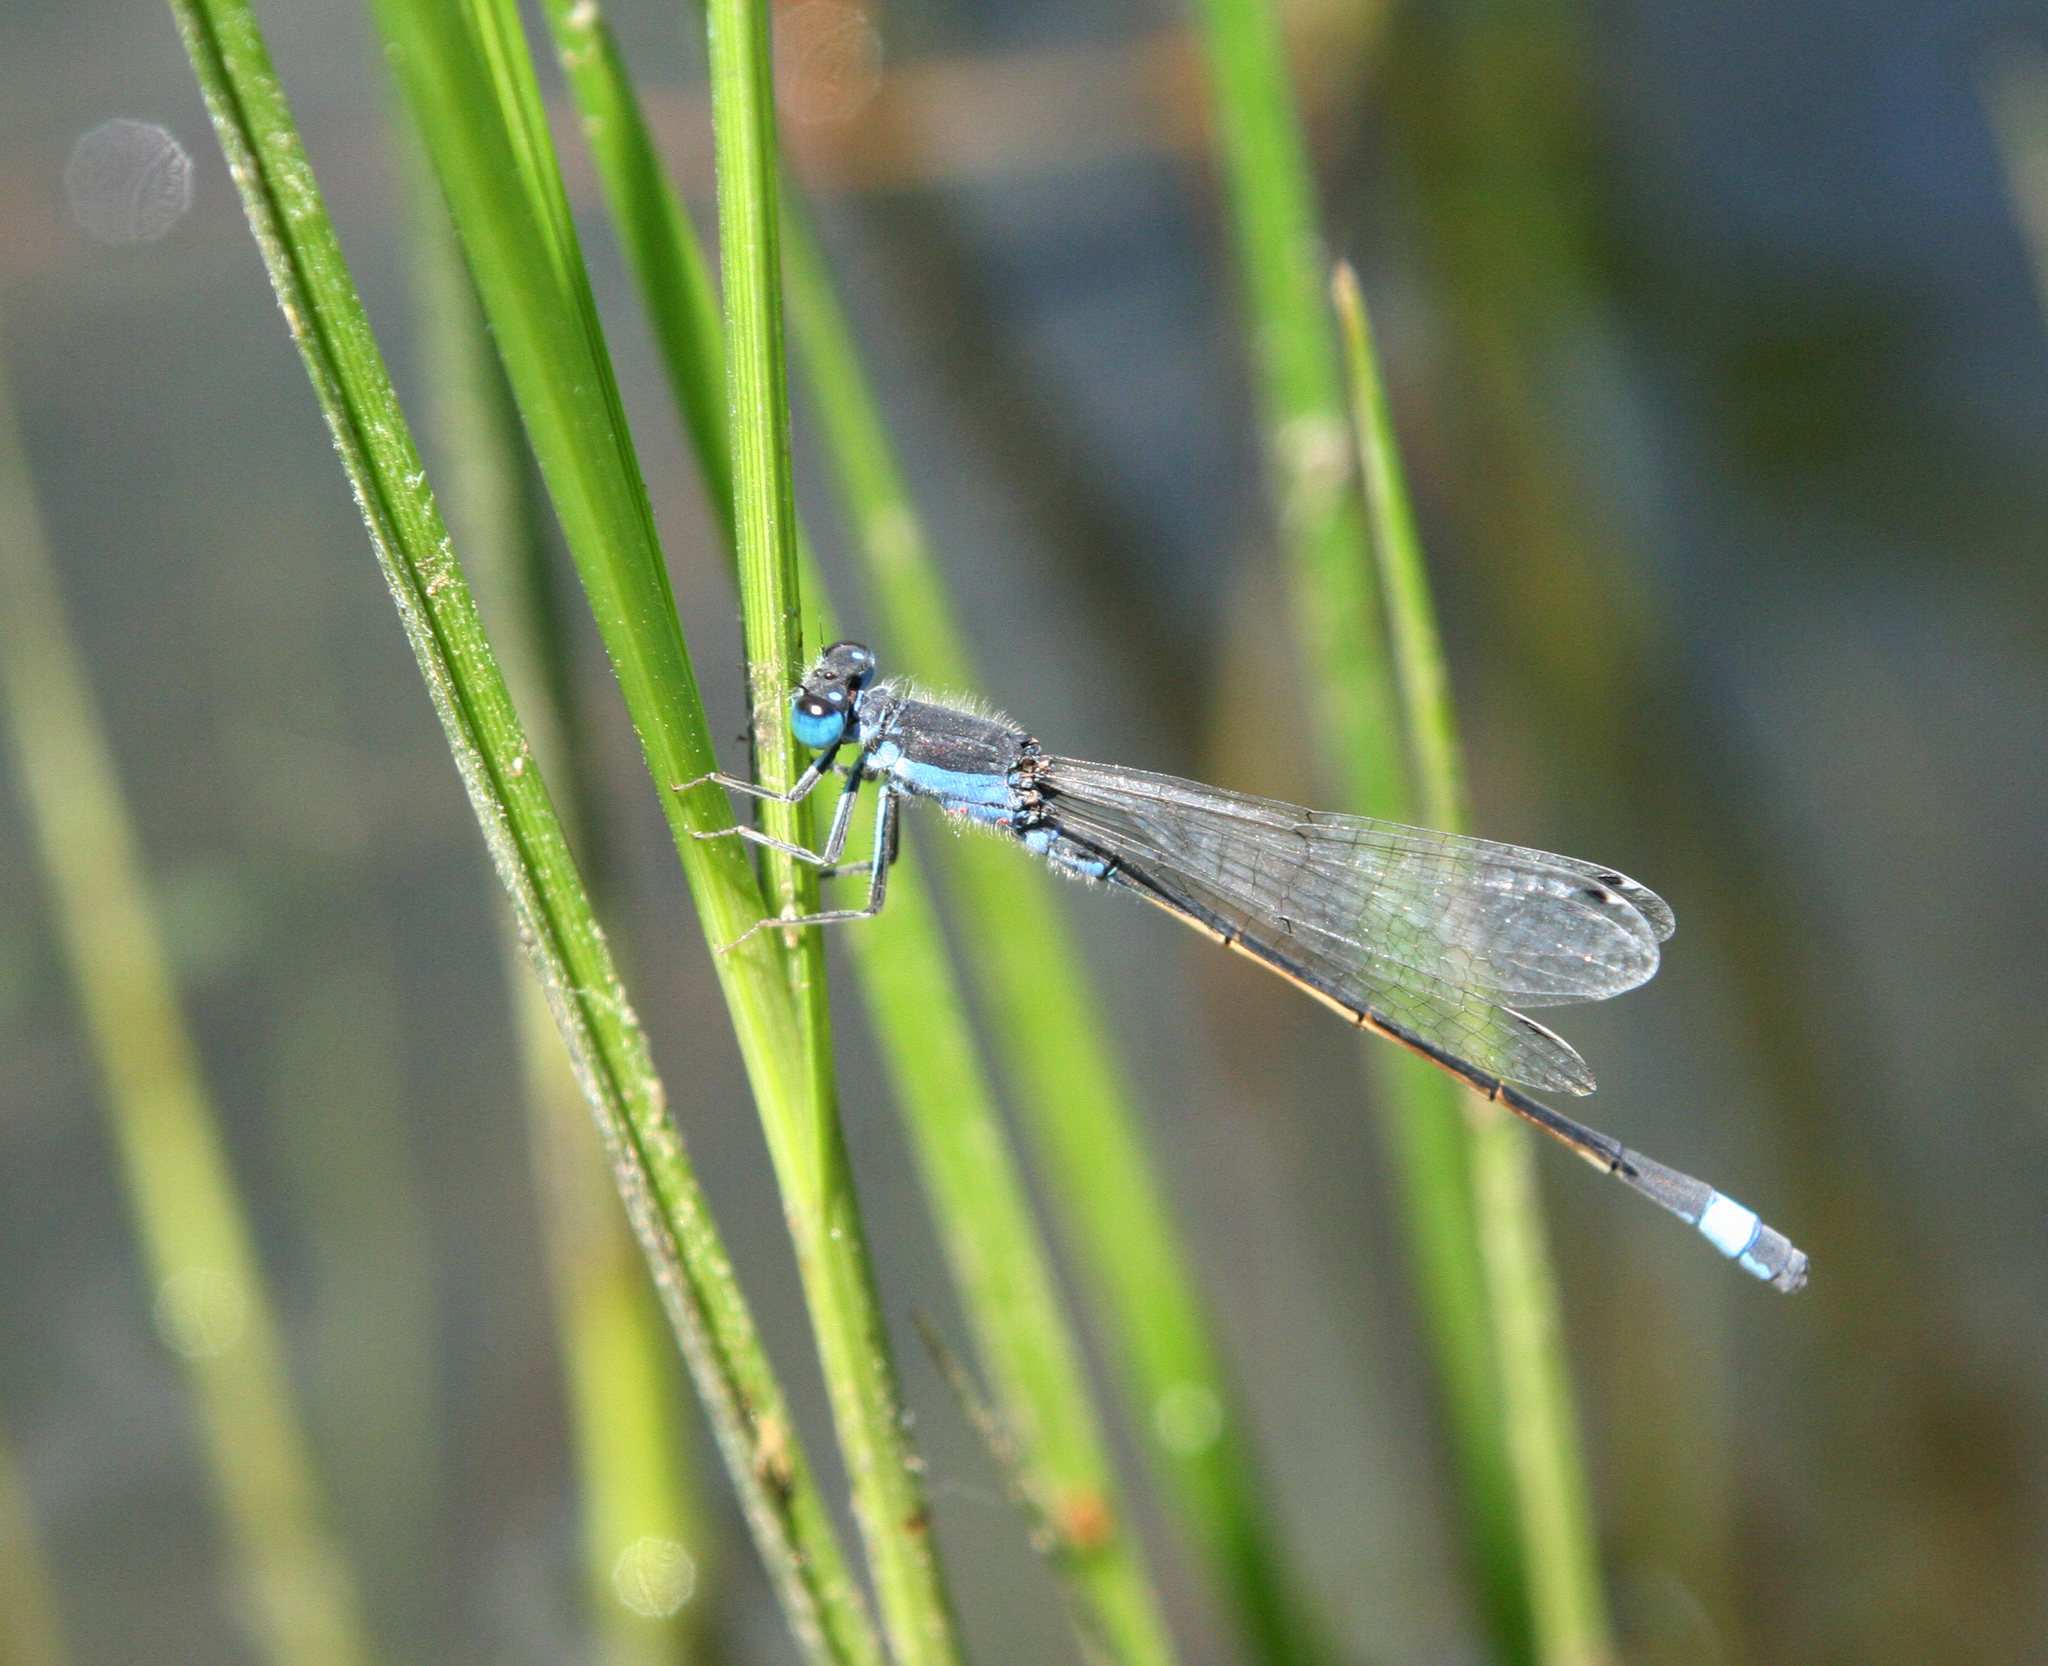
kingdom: Animalia
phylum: Arthropoda
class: Insecta
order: Odonata
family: Coenagrionidae
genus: Ischnura
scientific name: Ischnura fountaineae
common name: Oasis bluetail
